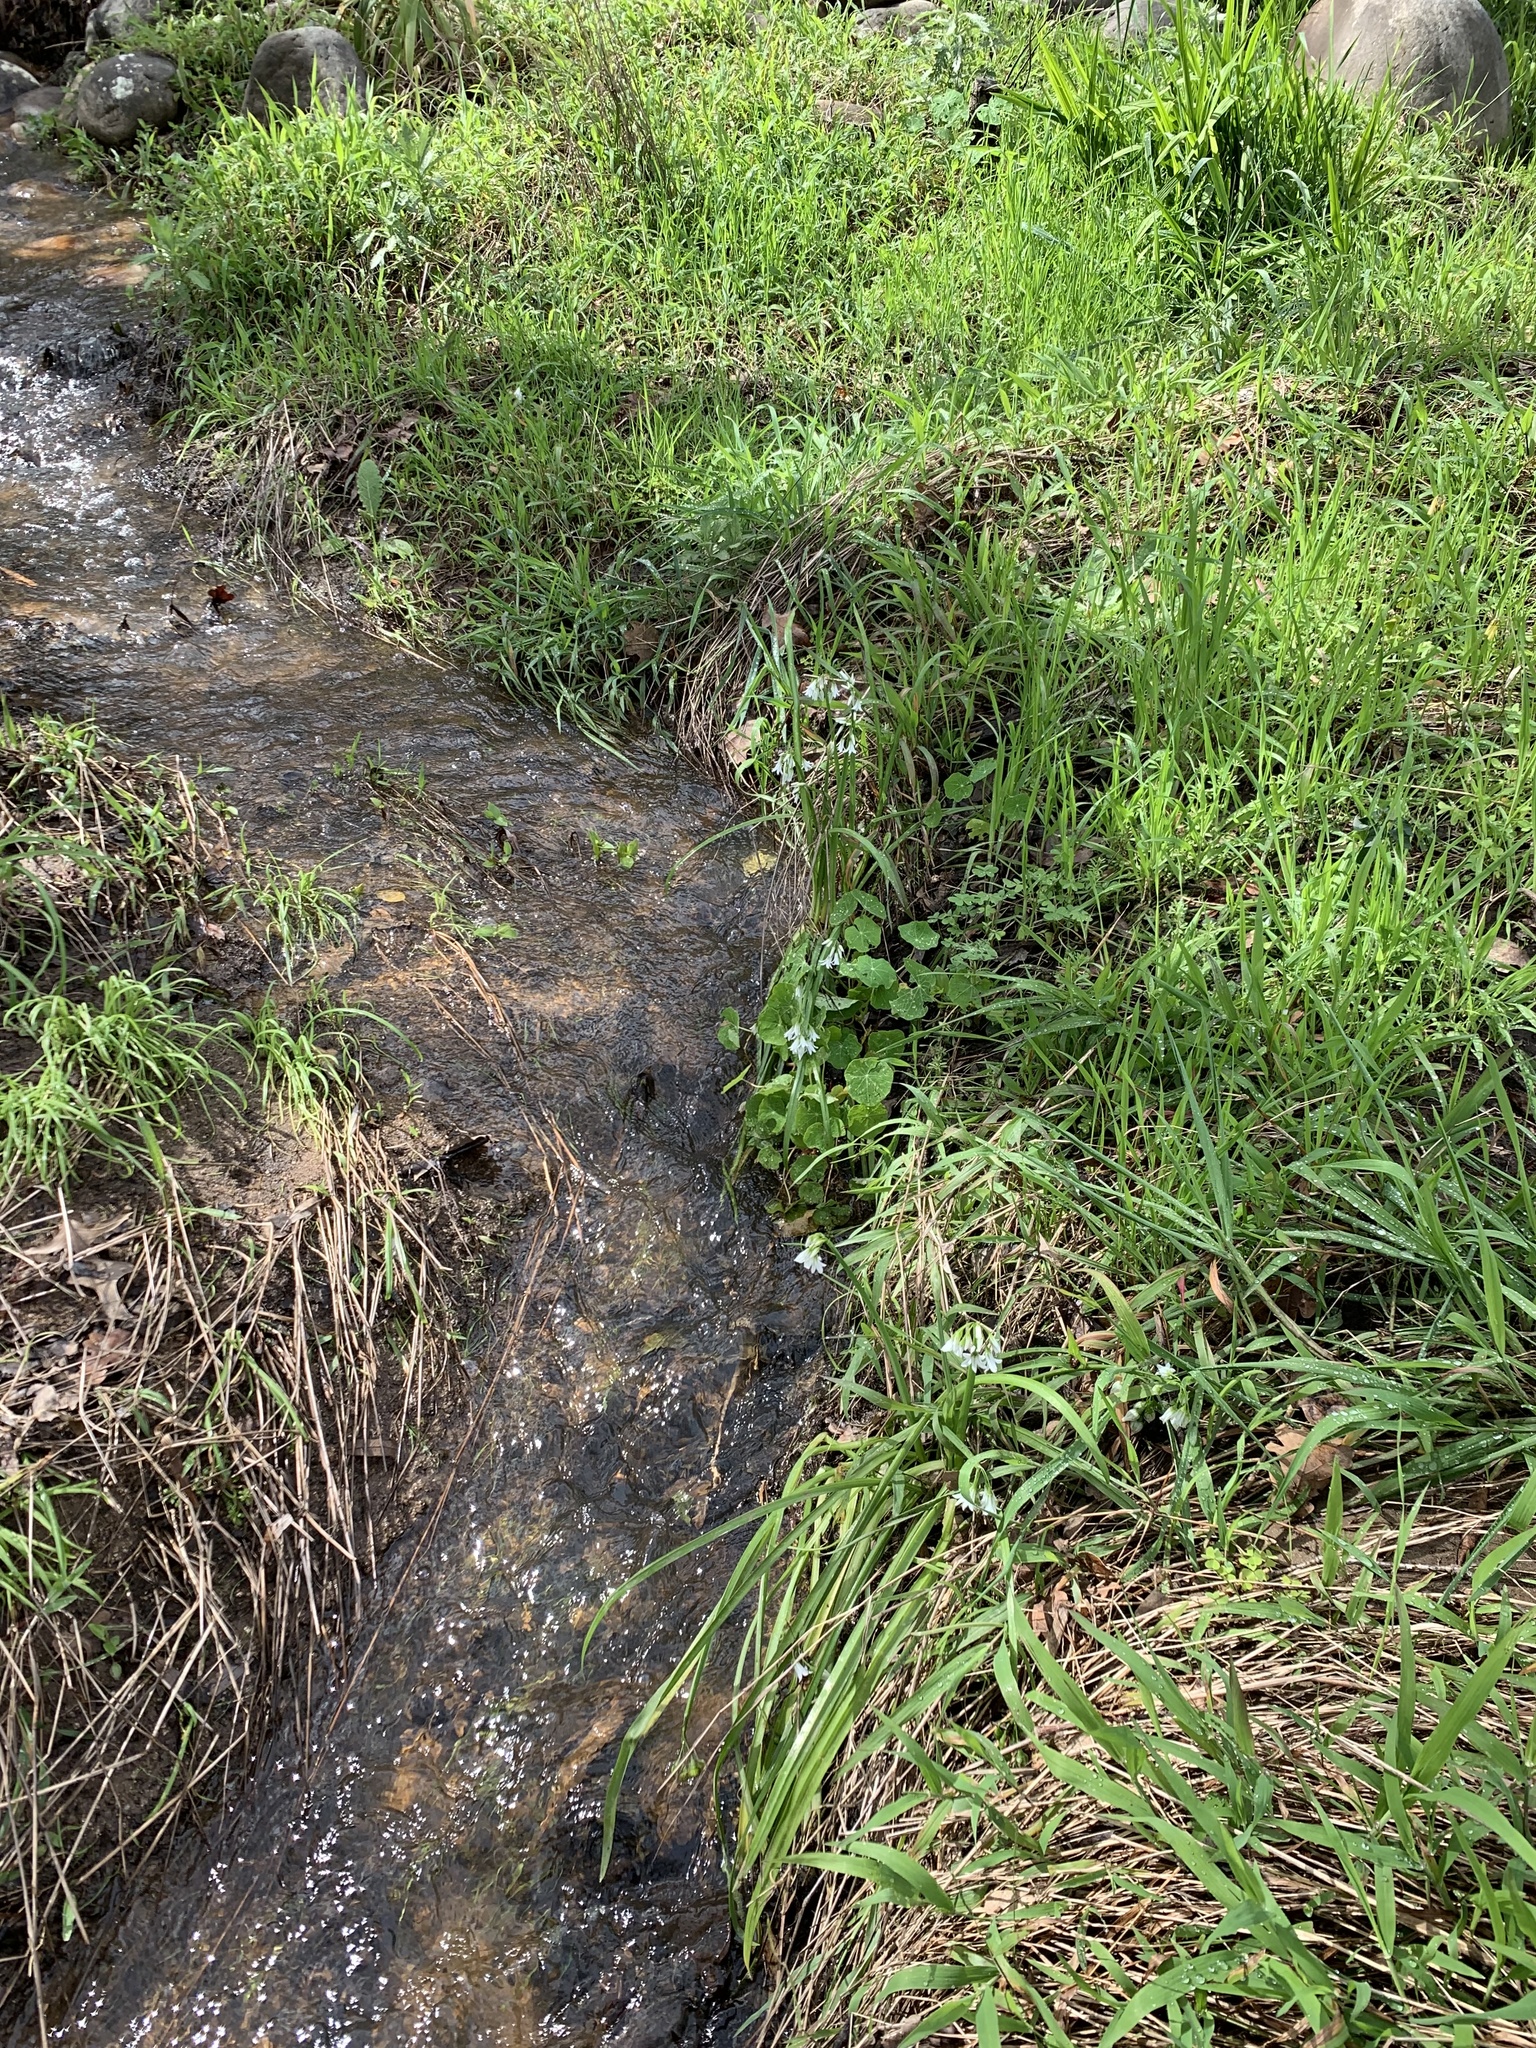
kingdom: Plantae
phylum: Tracheophyta
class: Liliopsida
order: Asparagales
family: Amaryllidaceae
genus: Allium
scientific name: Allium triquetrum
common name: Three-cornered garlic
